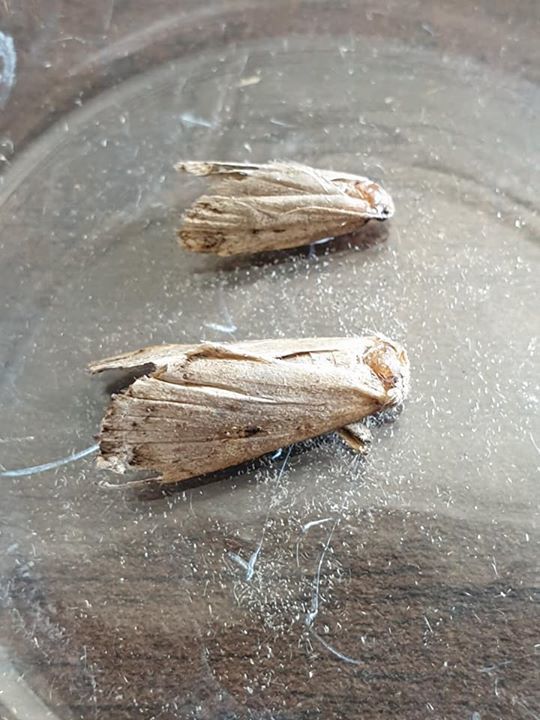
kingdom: Animalia
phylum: Arthropoda
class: Insecta
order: Lepidoptera
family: Erebidae
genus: Rhapsa
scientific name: Rhapsa scotosialis
